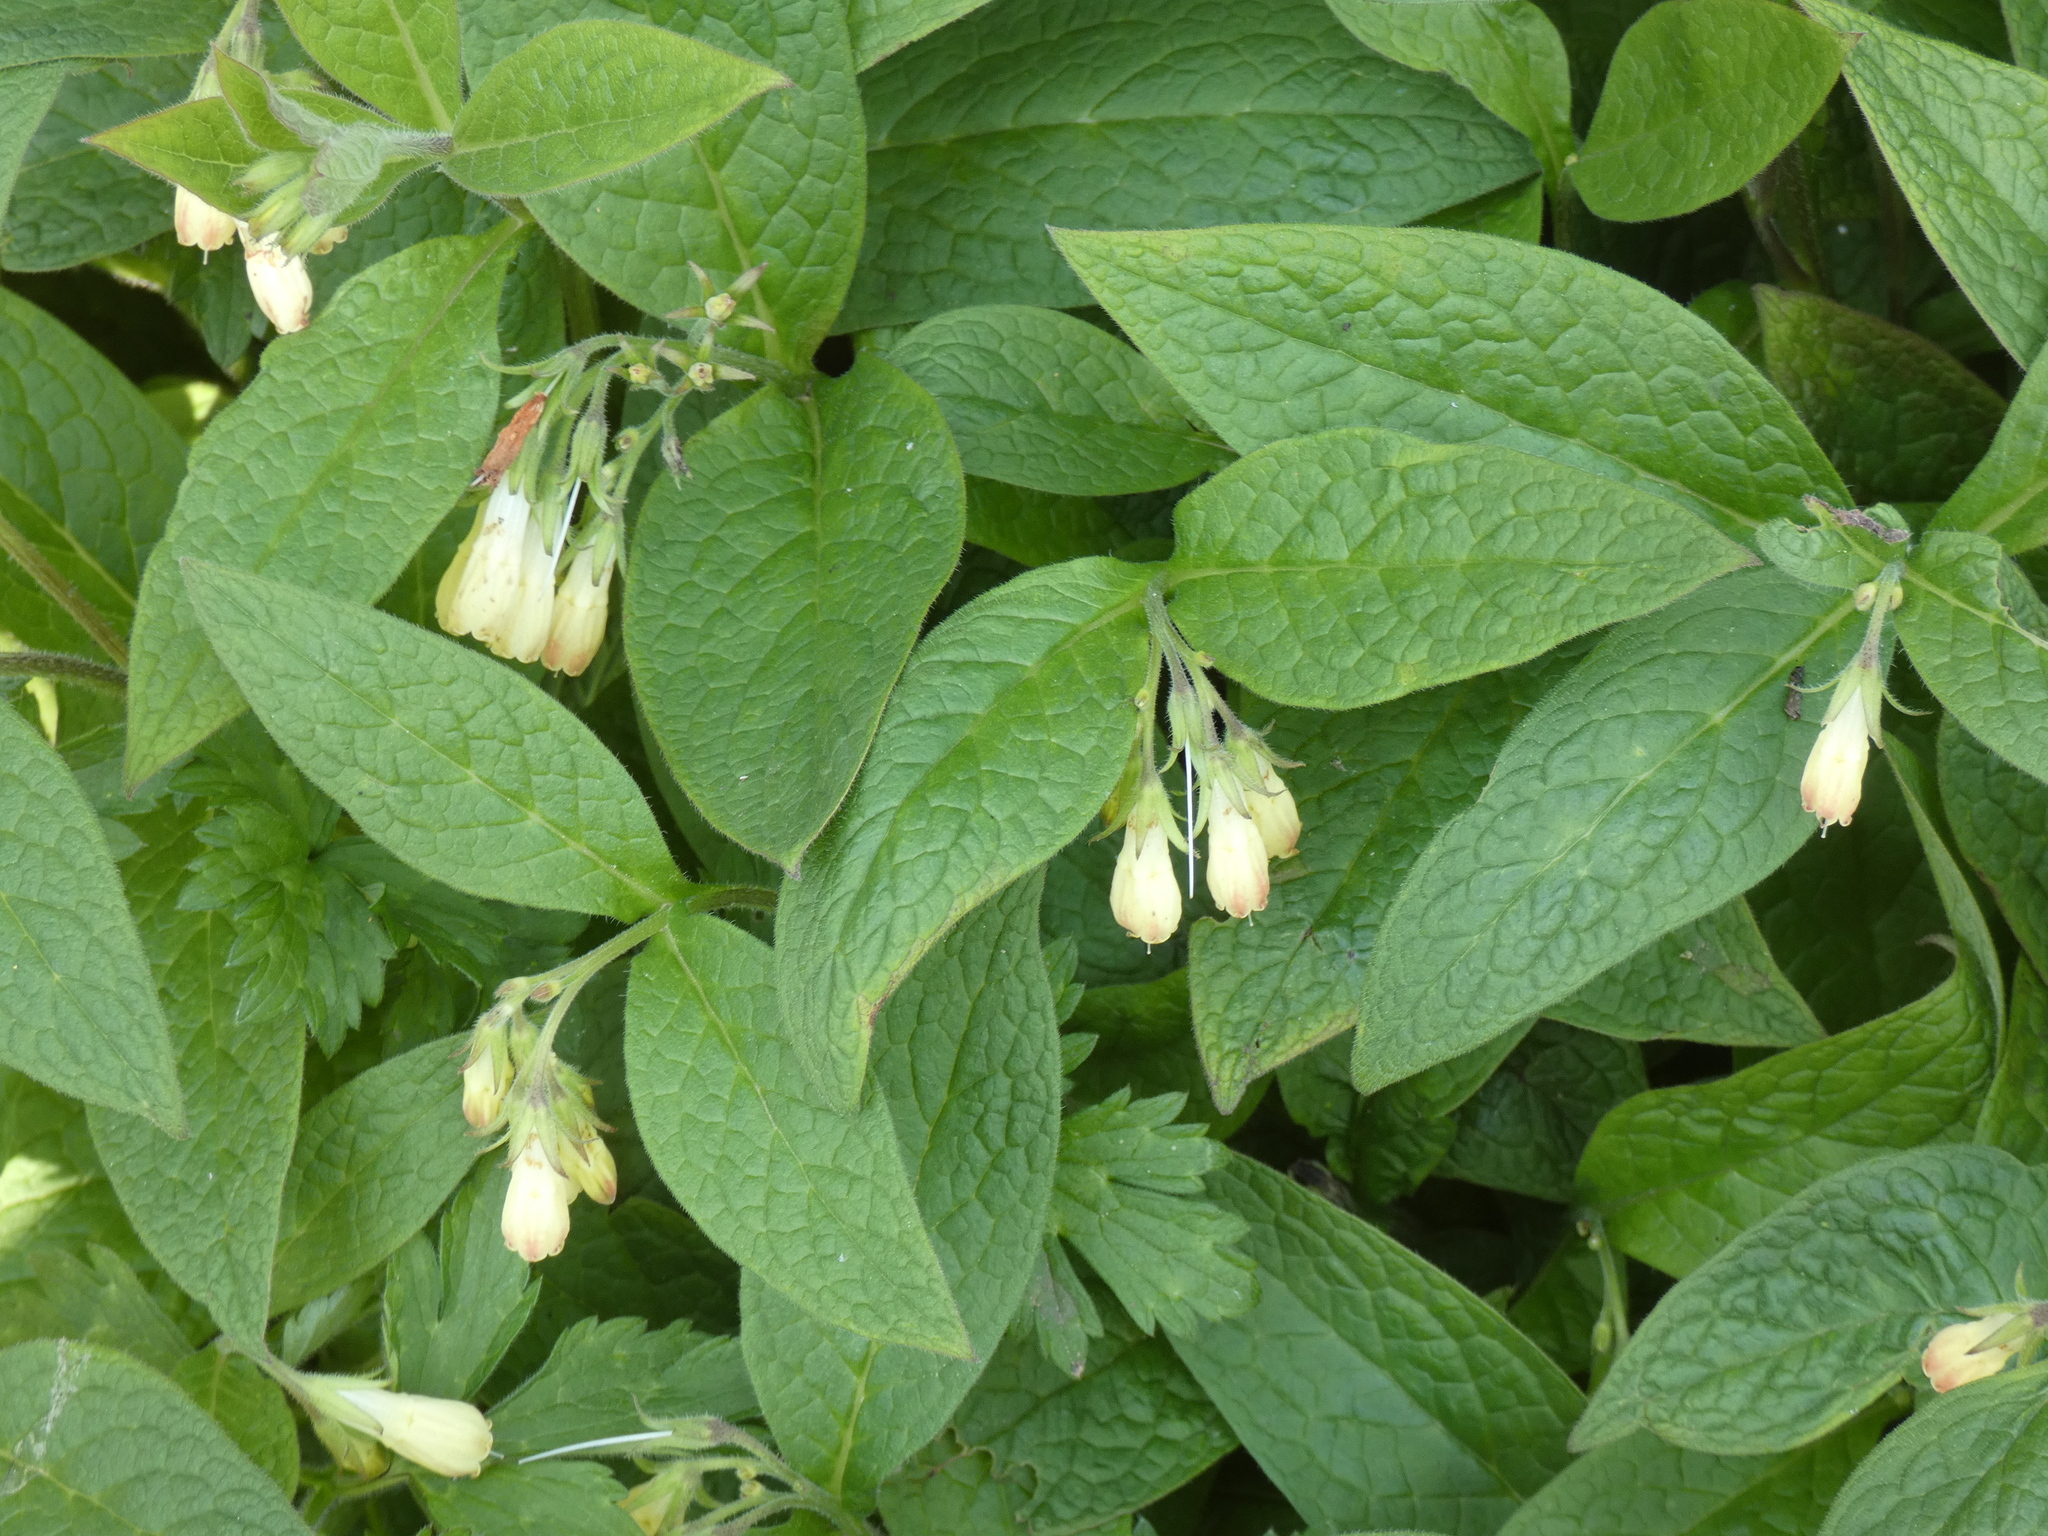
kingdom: Plantae
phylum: Tracheophyta
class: Magnoliopsida
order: Boraginales
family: Boraginaceae
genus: Symphytum
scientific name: Symphytum tuberosum
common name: Tuberous comfrey
